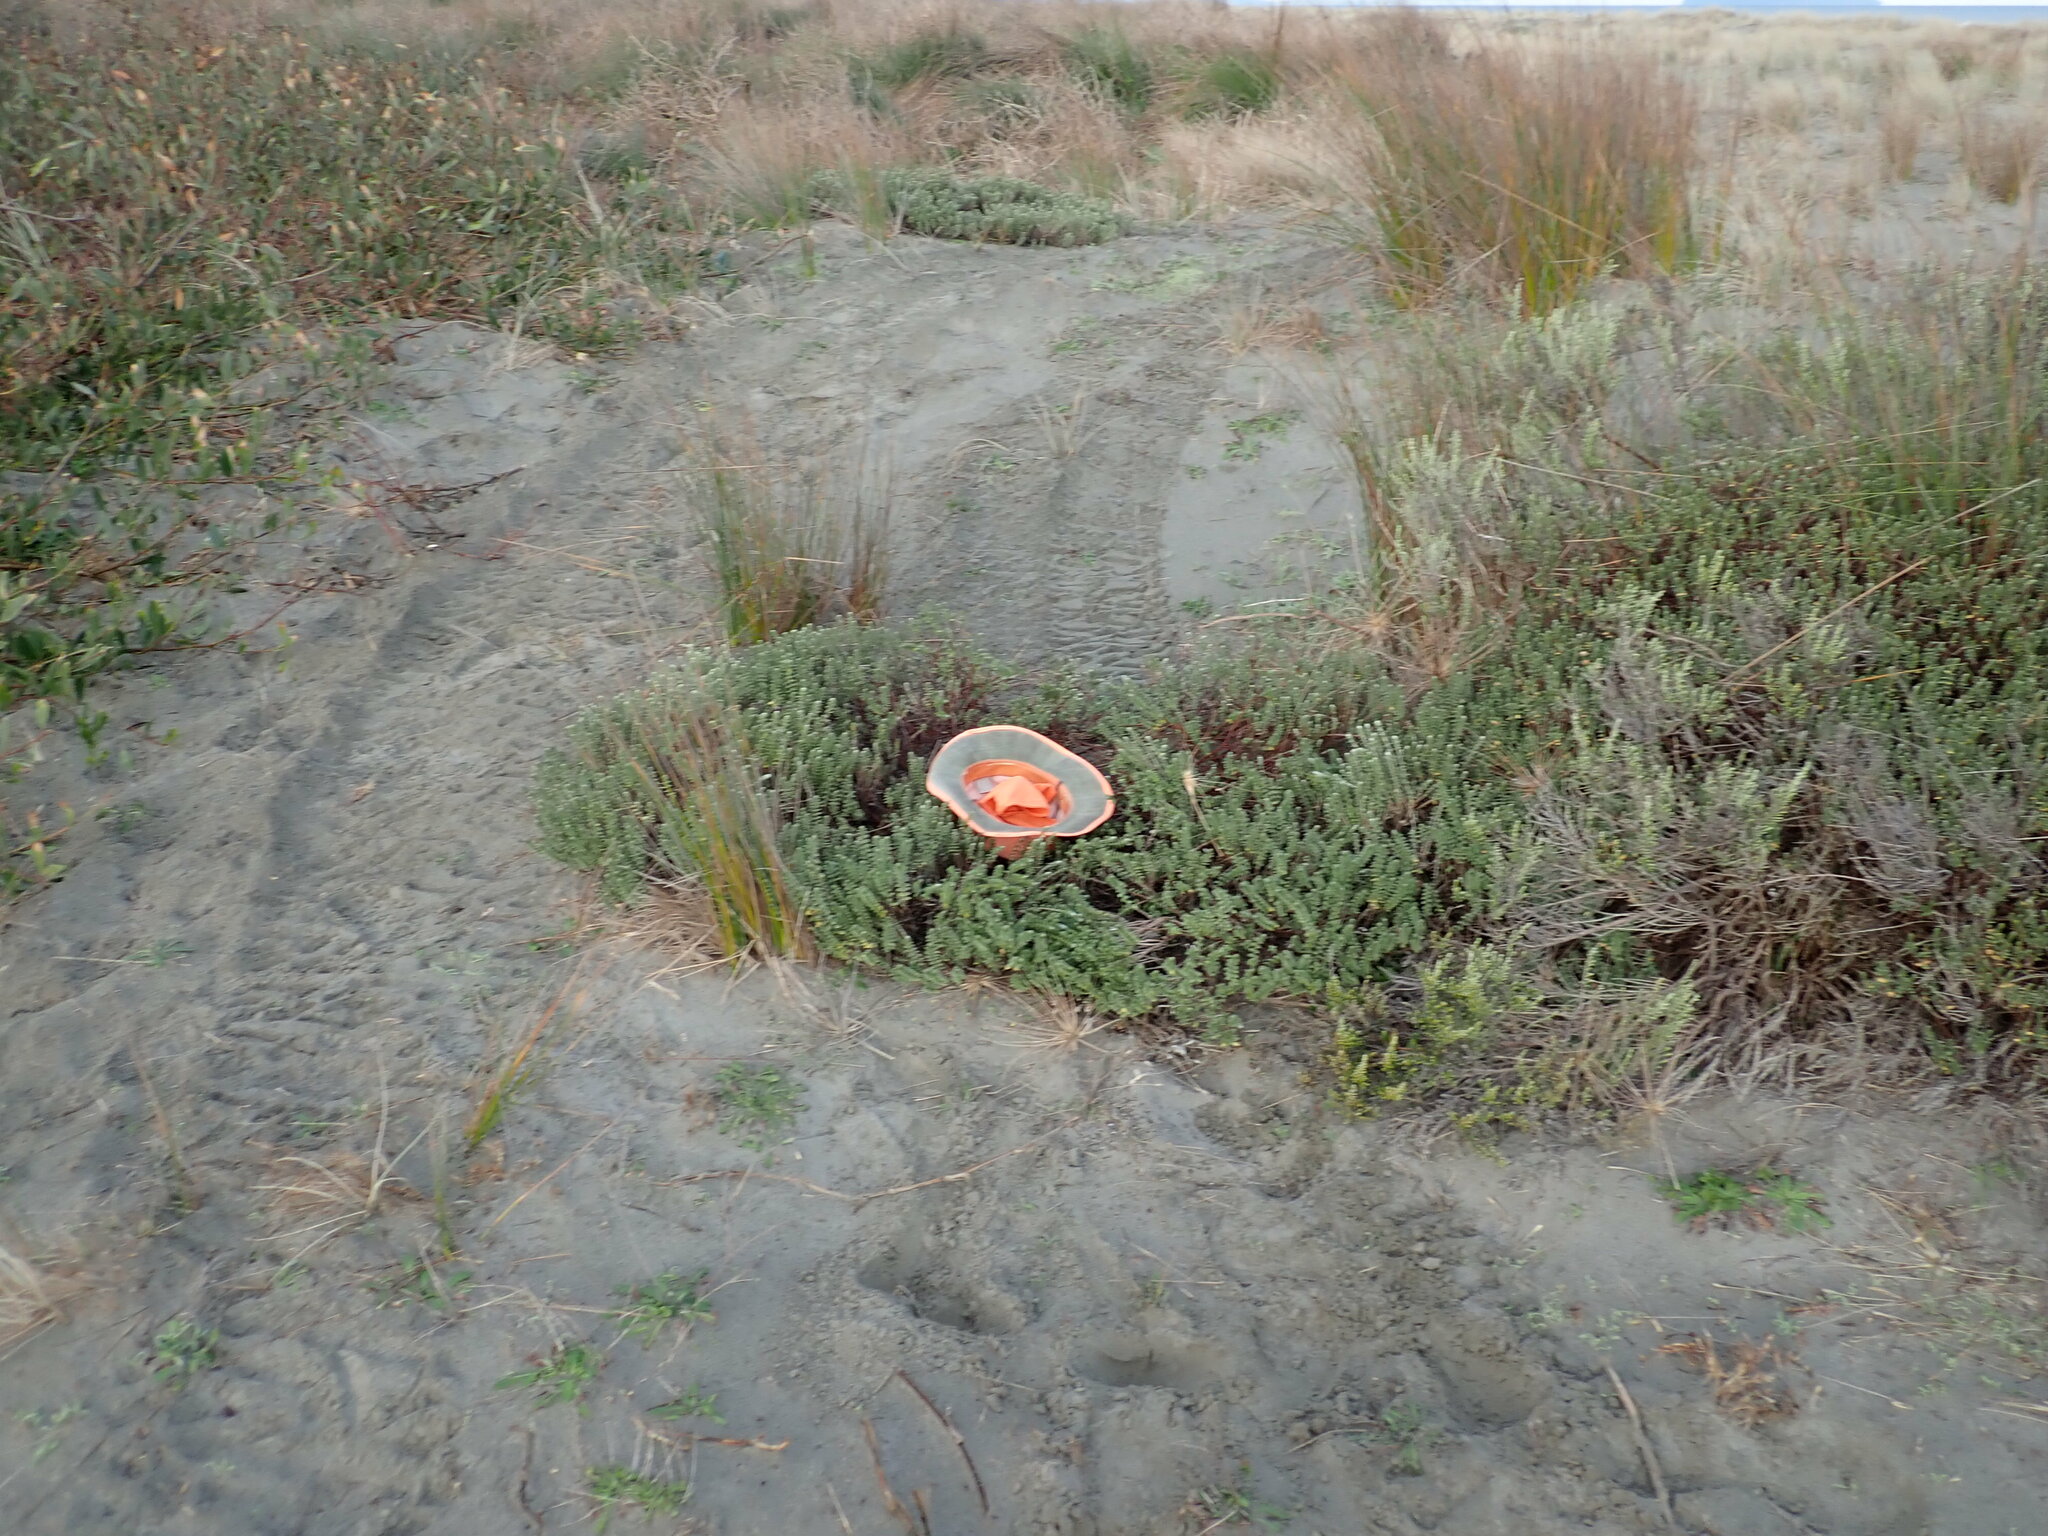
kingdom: Animalia
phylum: Chordata
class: Mammalia
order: Artiodactyla
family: Bovidae
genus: Bos
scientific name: Bos taurus
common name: Domesticated cattle
